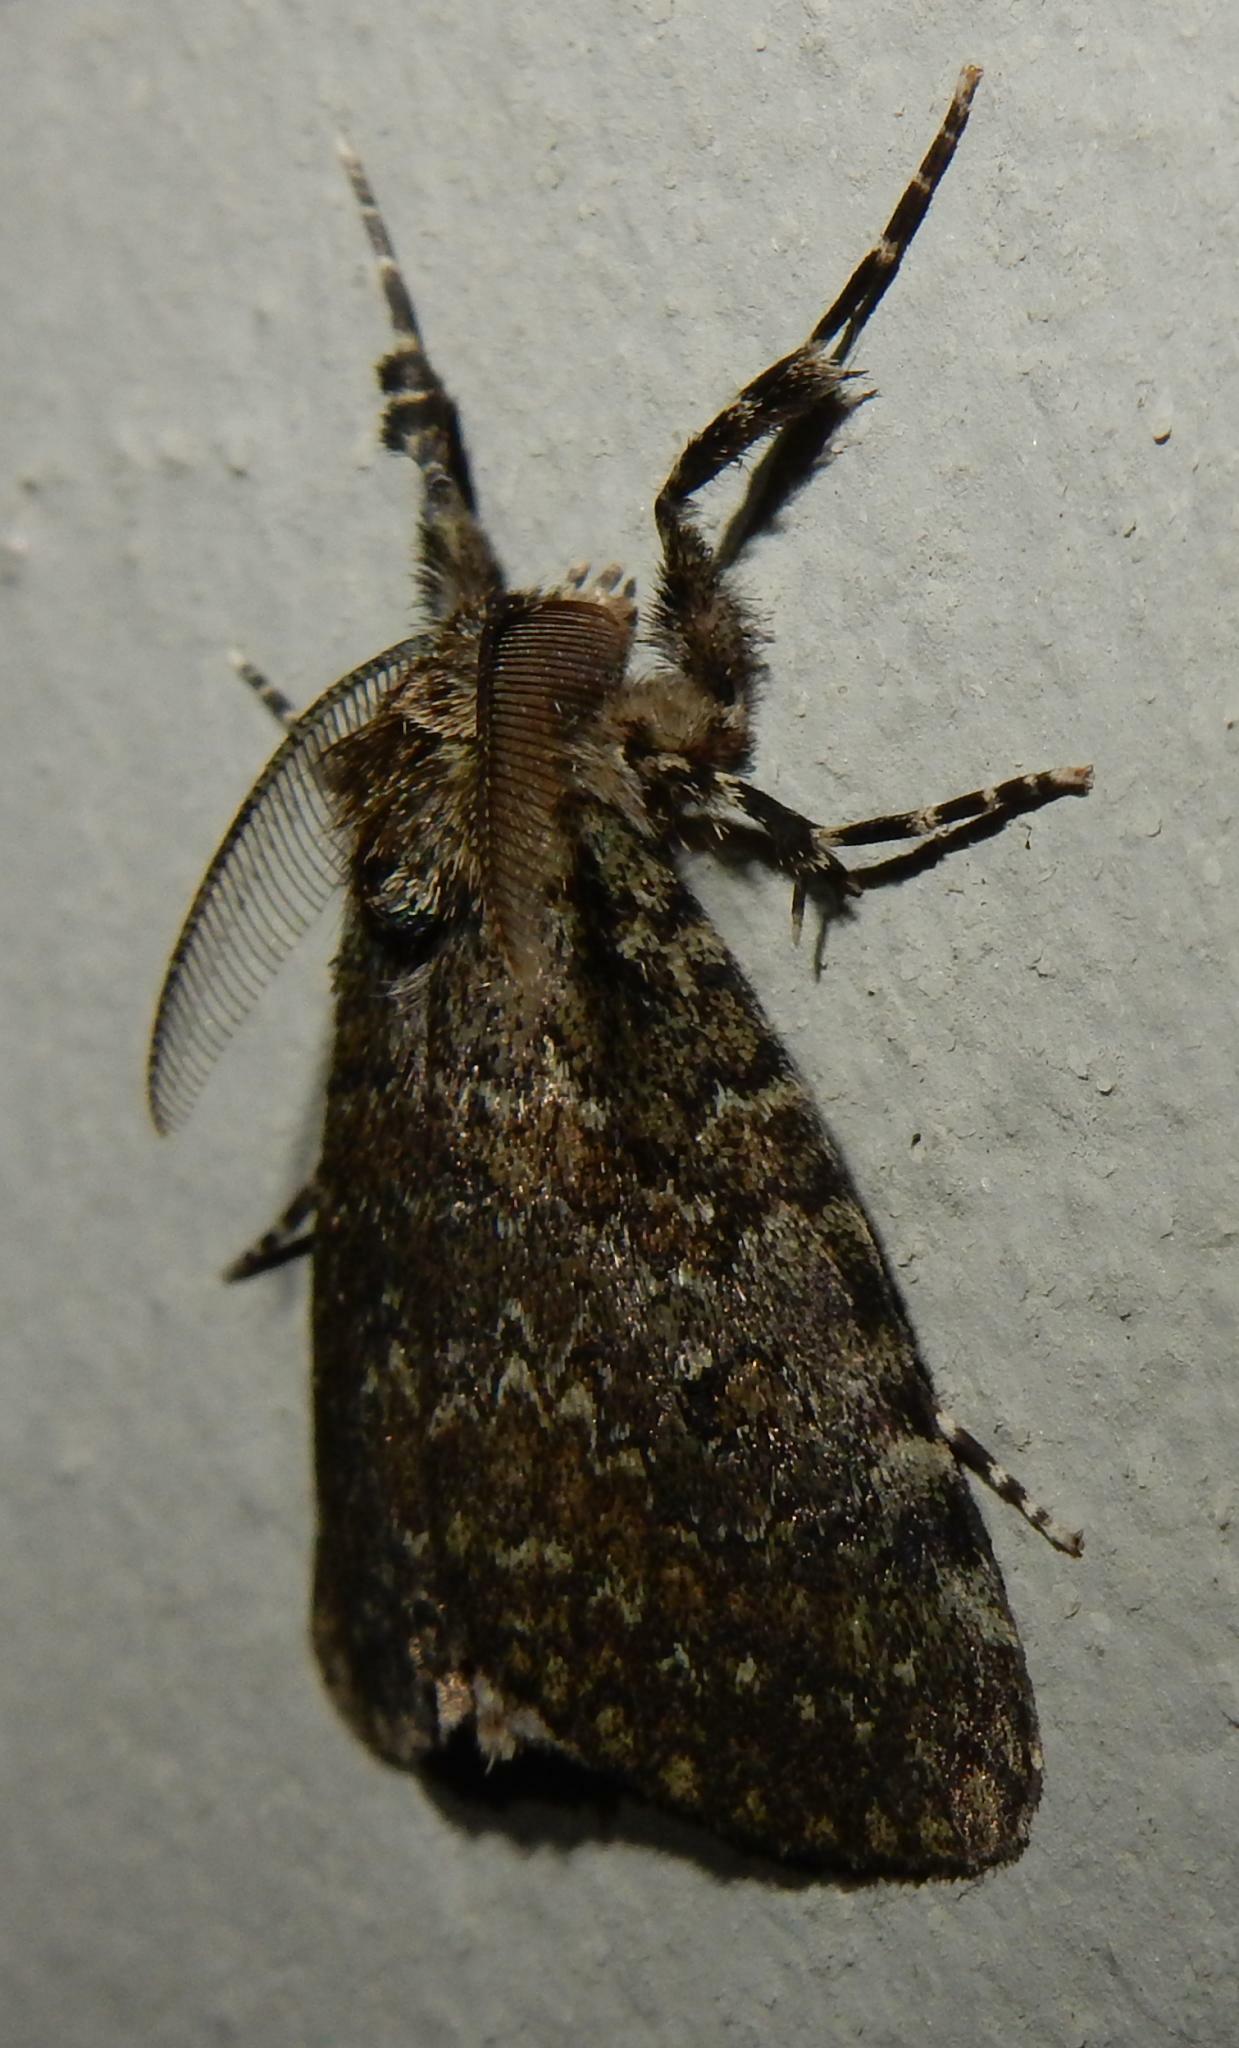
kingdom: Animalia
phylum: Arthropoda
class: Insecta
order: Lepidoptera
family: Erebidae
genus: Laelia
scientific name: Laelia fusca
